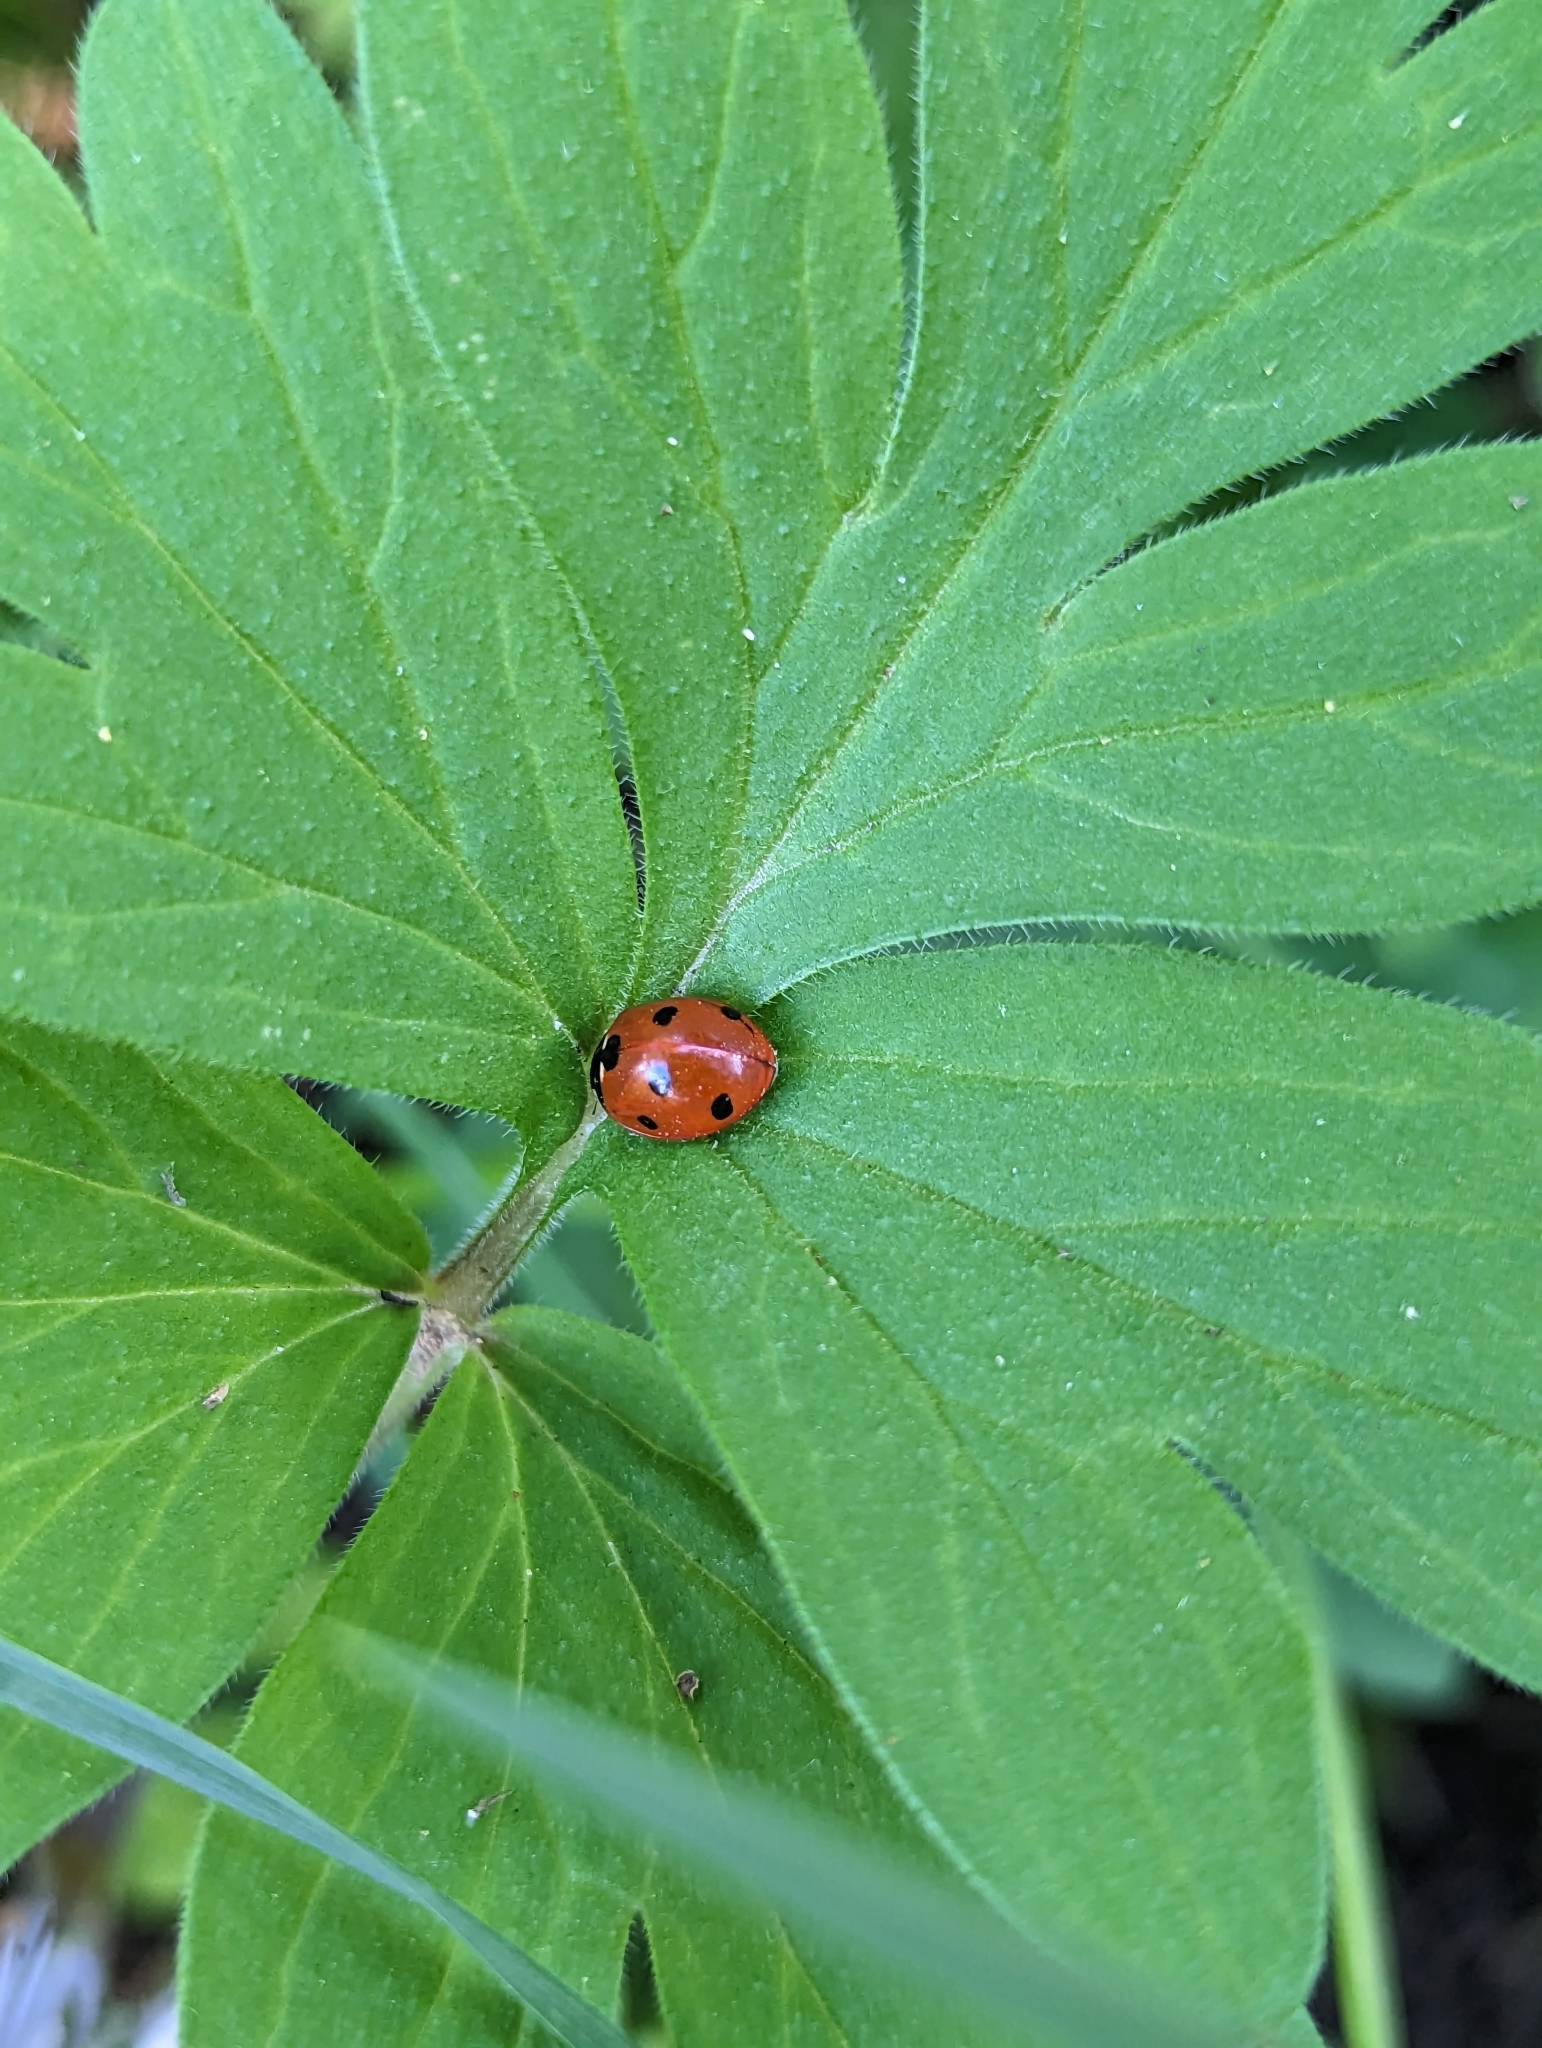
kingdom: Animalia
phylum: Arthropoda
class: Insecta
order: Coleoptera
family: Coccinellidae
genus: Coccinella
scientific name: Coccinella septempunctata
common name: Sevenspotted lady beetle
